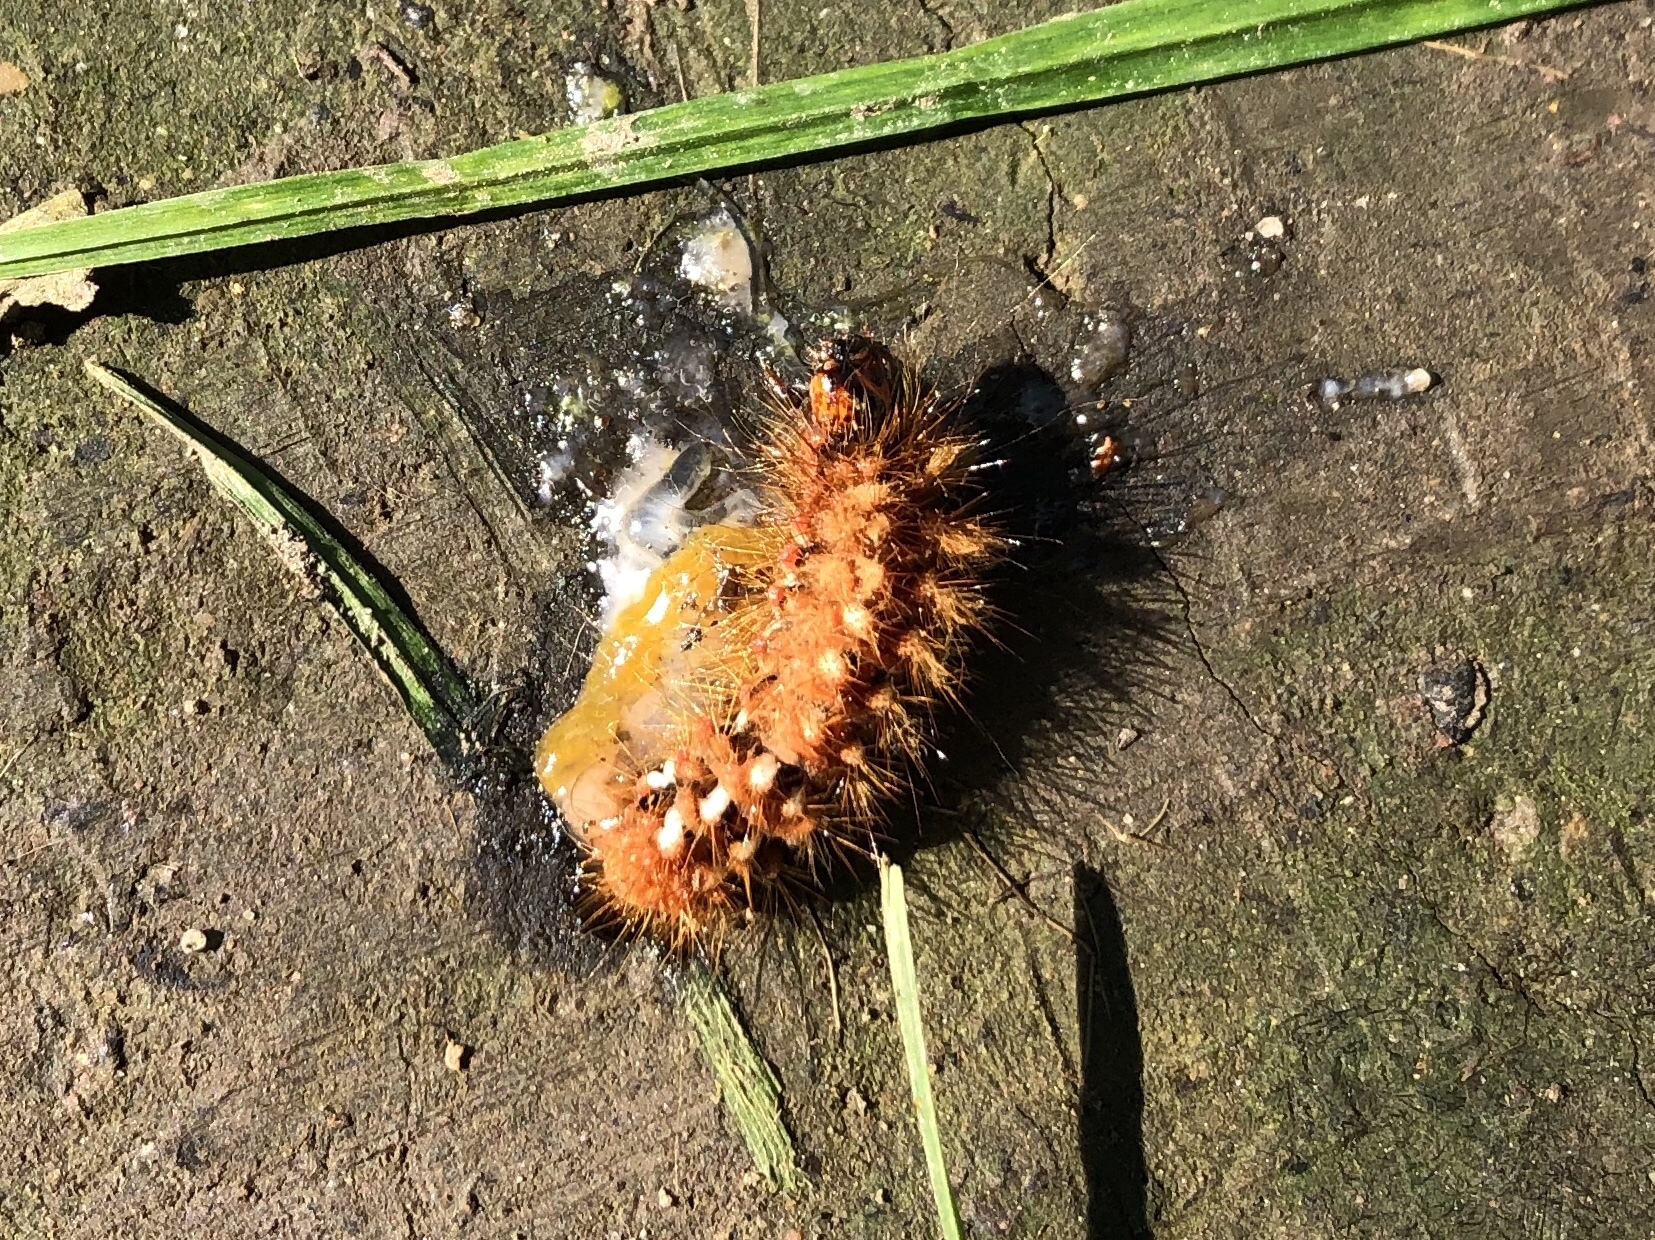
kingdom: Animalia
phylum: Arthropoda
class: Insecta
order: Lepidoptera
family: Noctuidae
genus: Acronicta
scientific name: Acronicta rumicis
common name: Knot grass
